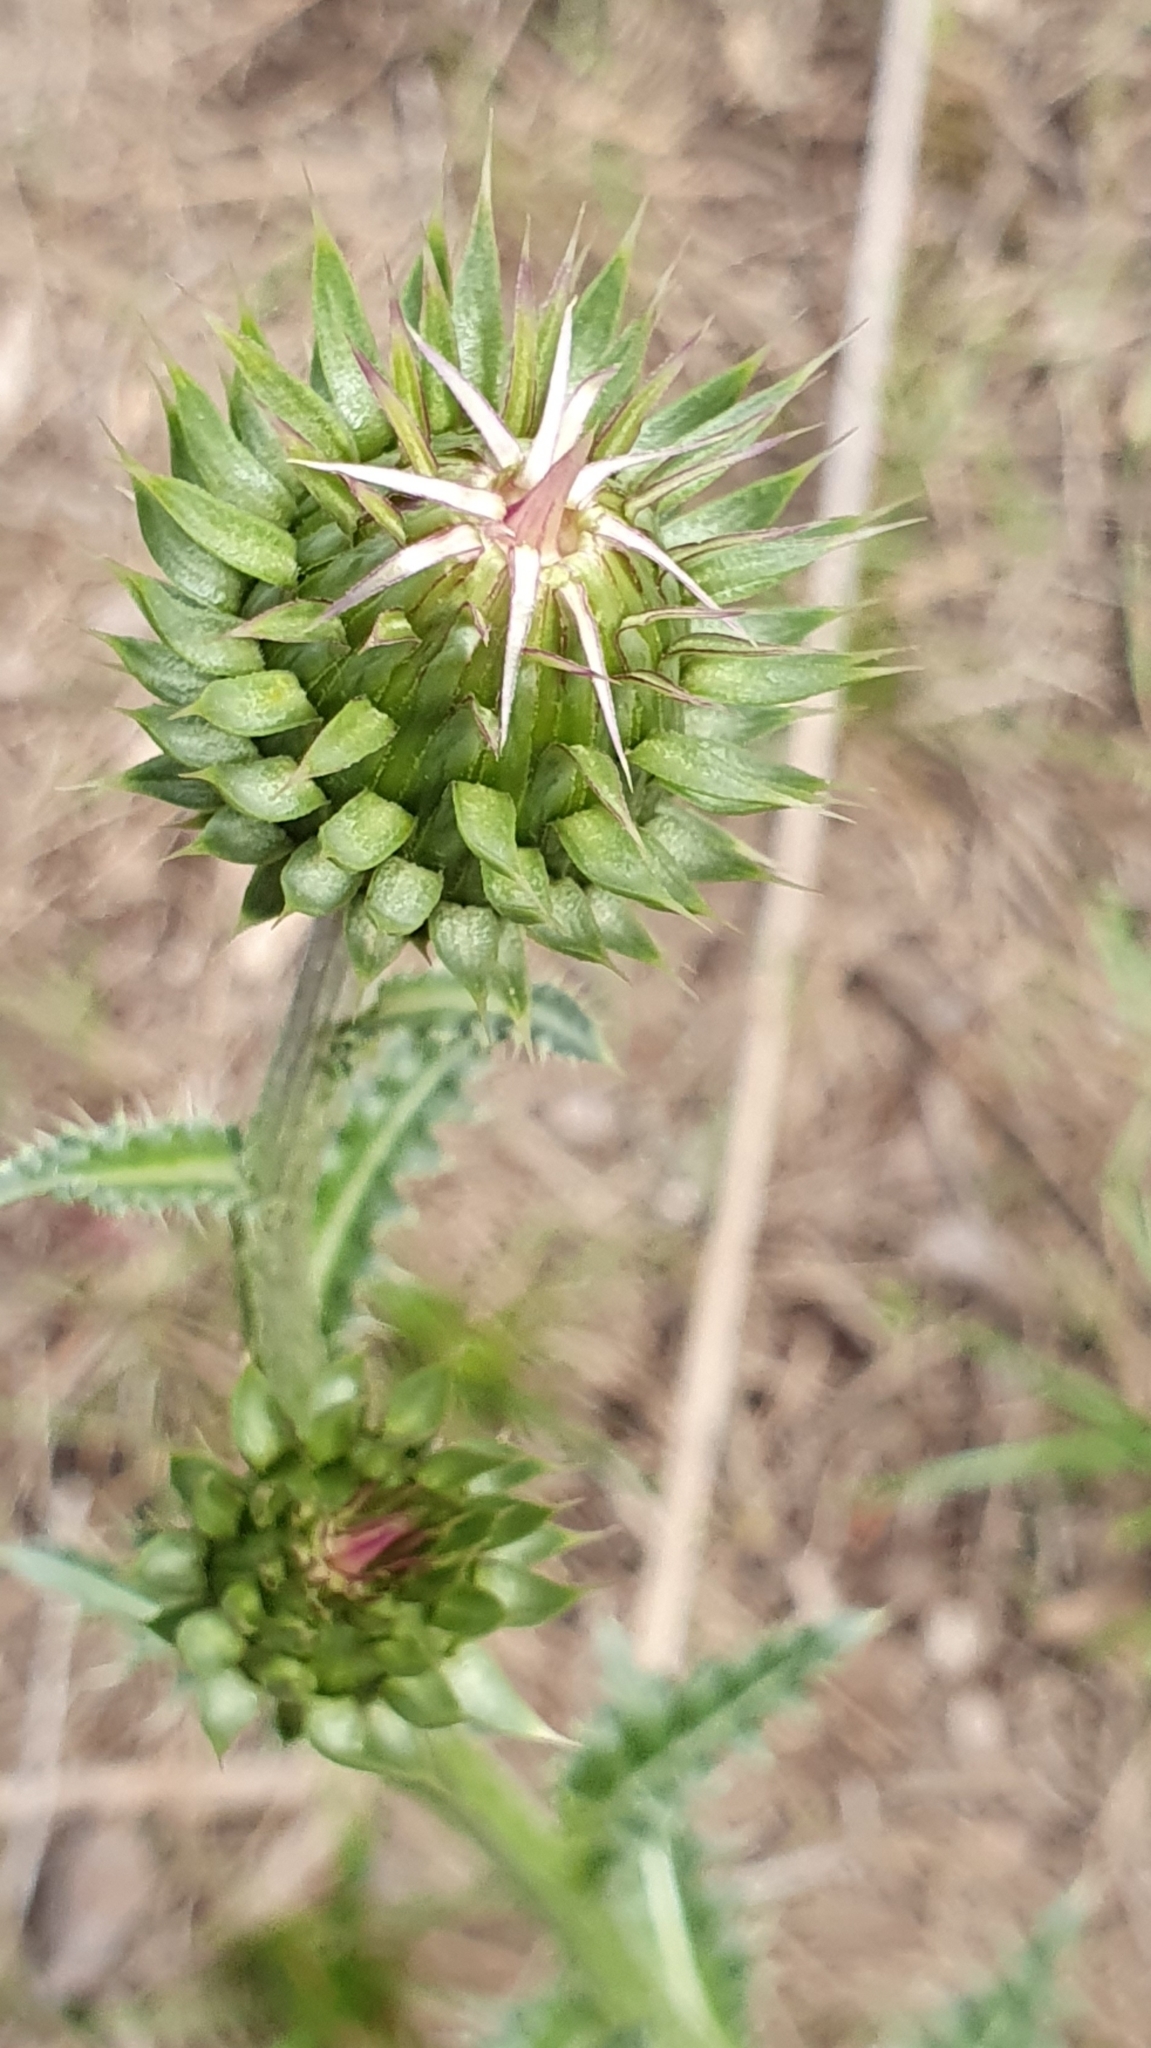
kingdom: Plantae
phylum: Tracheophyta
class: Magnoliopsida
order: Asterales
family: Asteraceae
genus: Carduus
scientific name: Carduus macrocephalus
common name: Giant thistle
